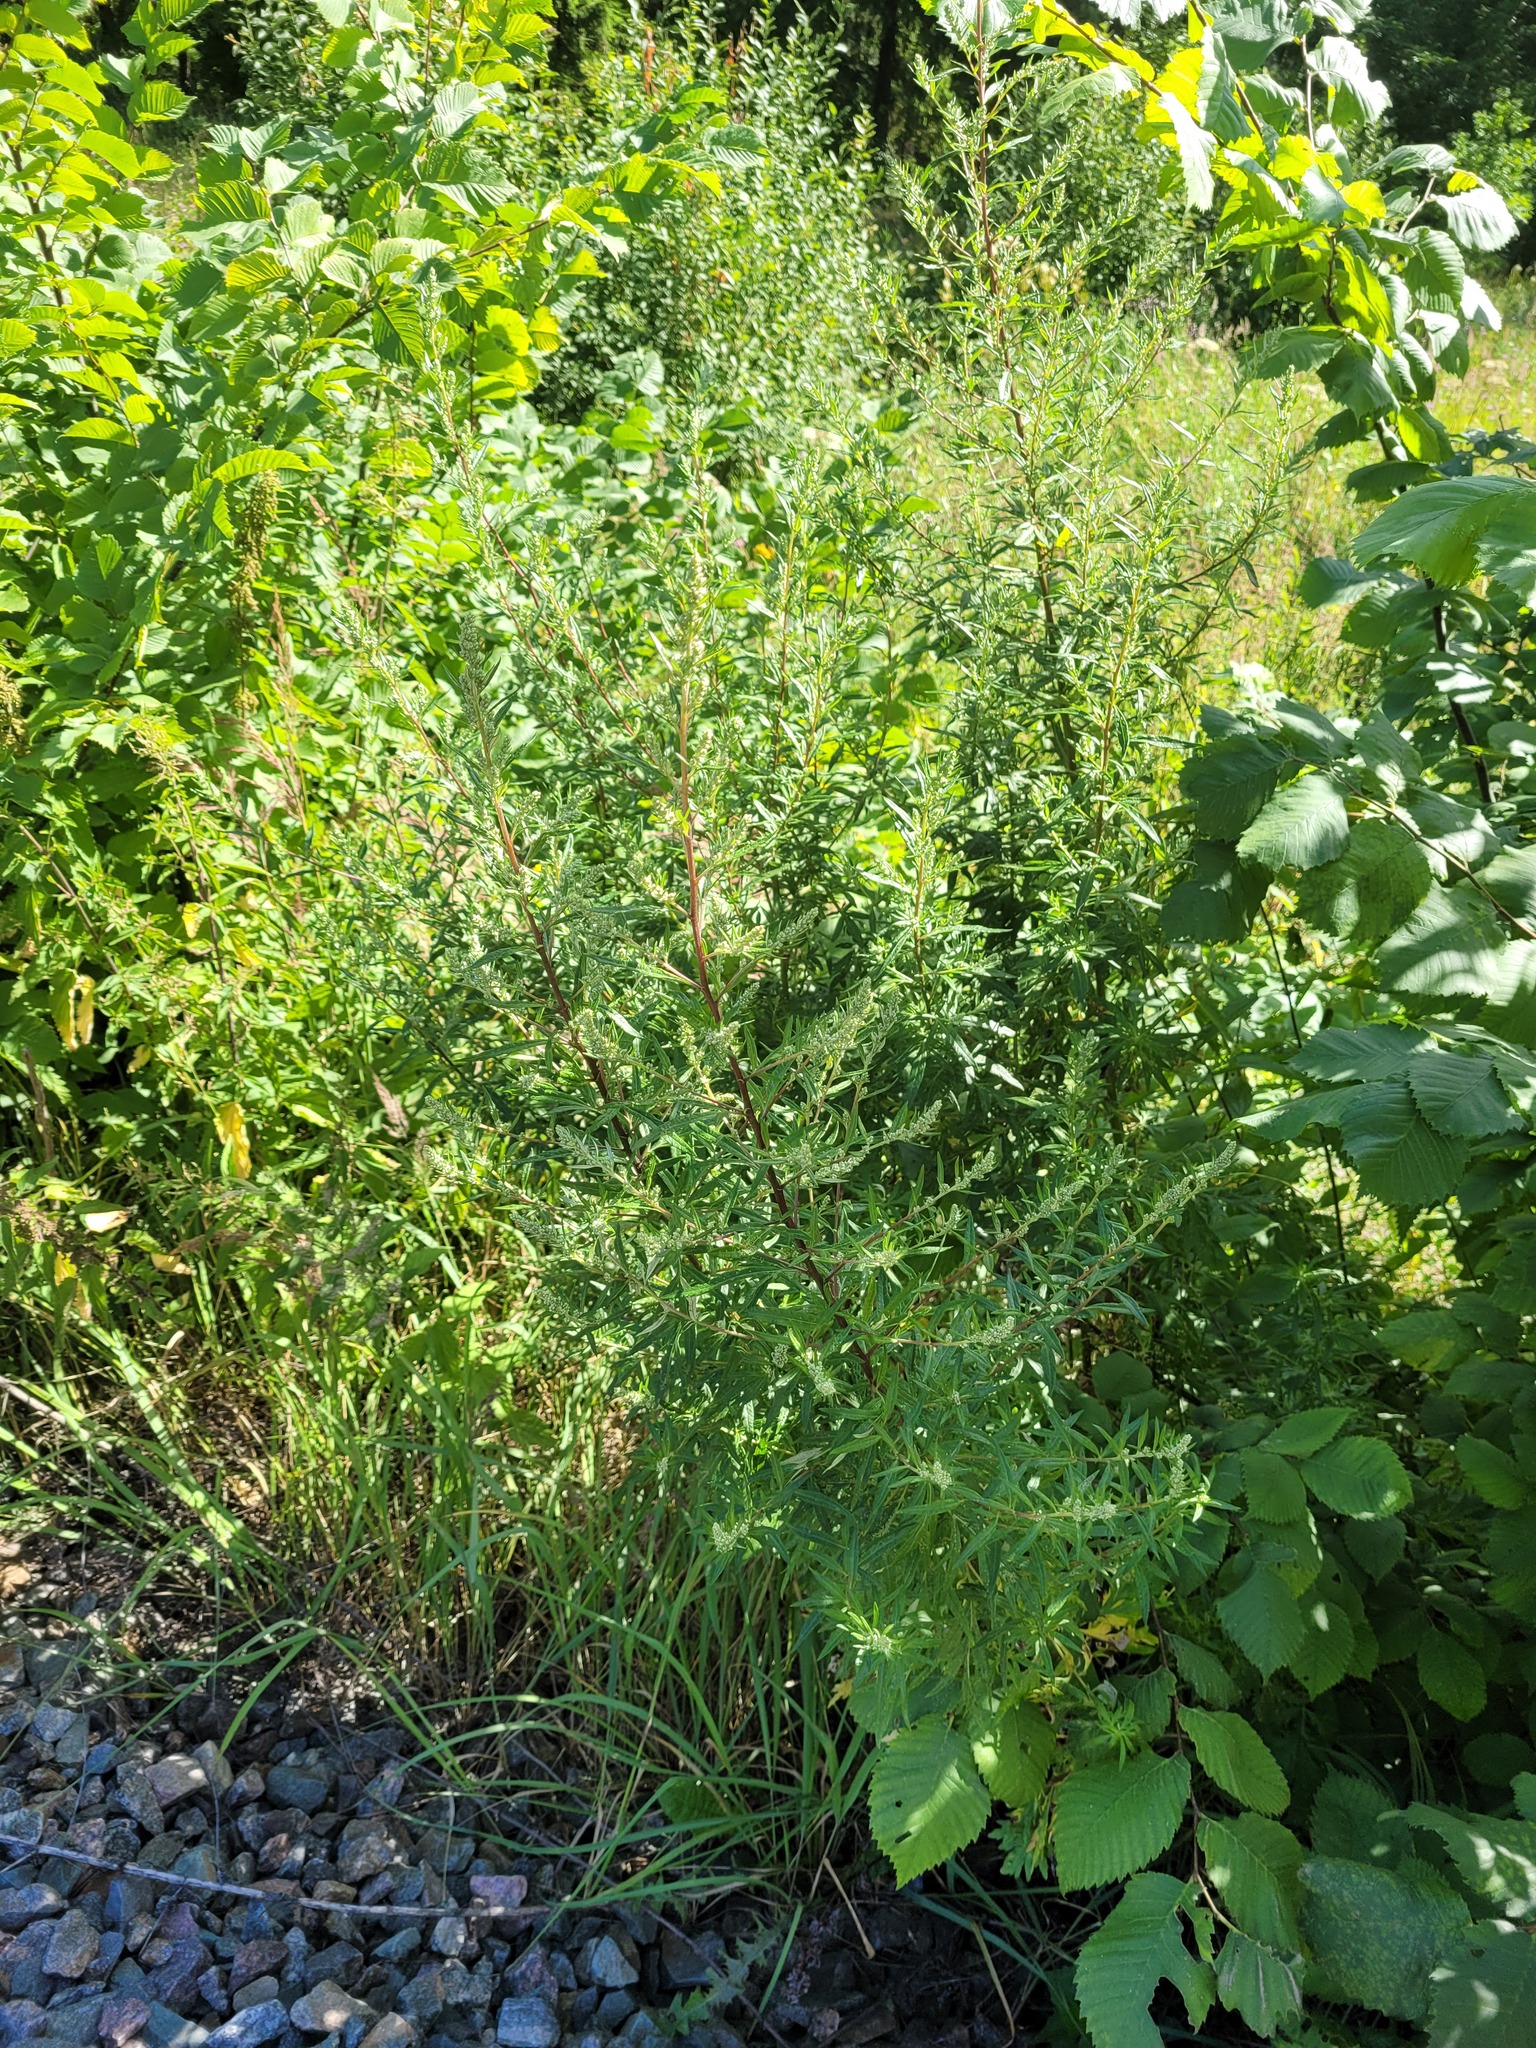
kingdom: Plantae
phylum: Tracheophyta
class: Magnoliopsida
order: Asterales
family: Asteraceae
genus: Artemisia
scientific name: Artemisia vulgaris
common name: Mugwort
